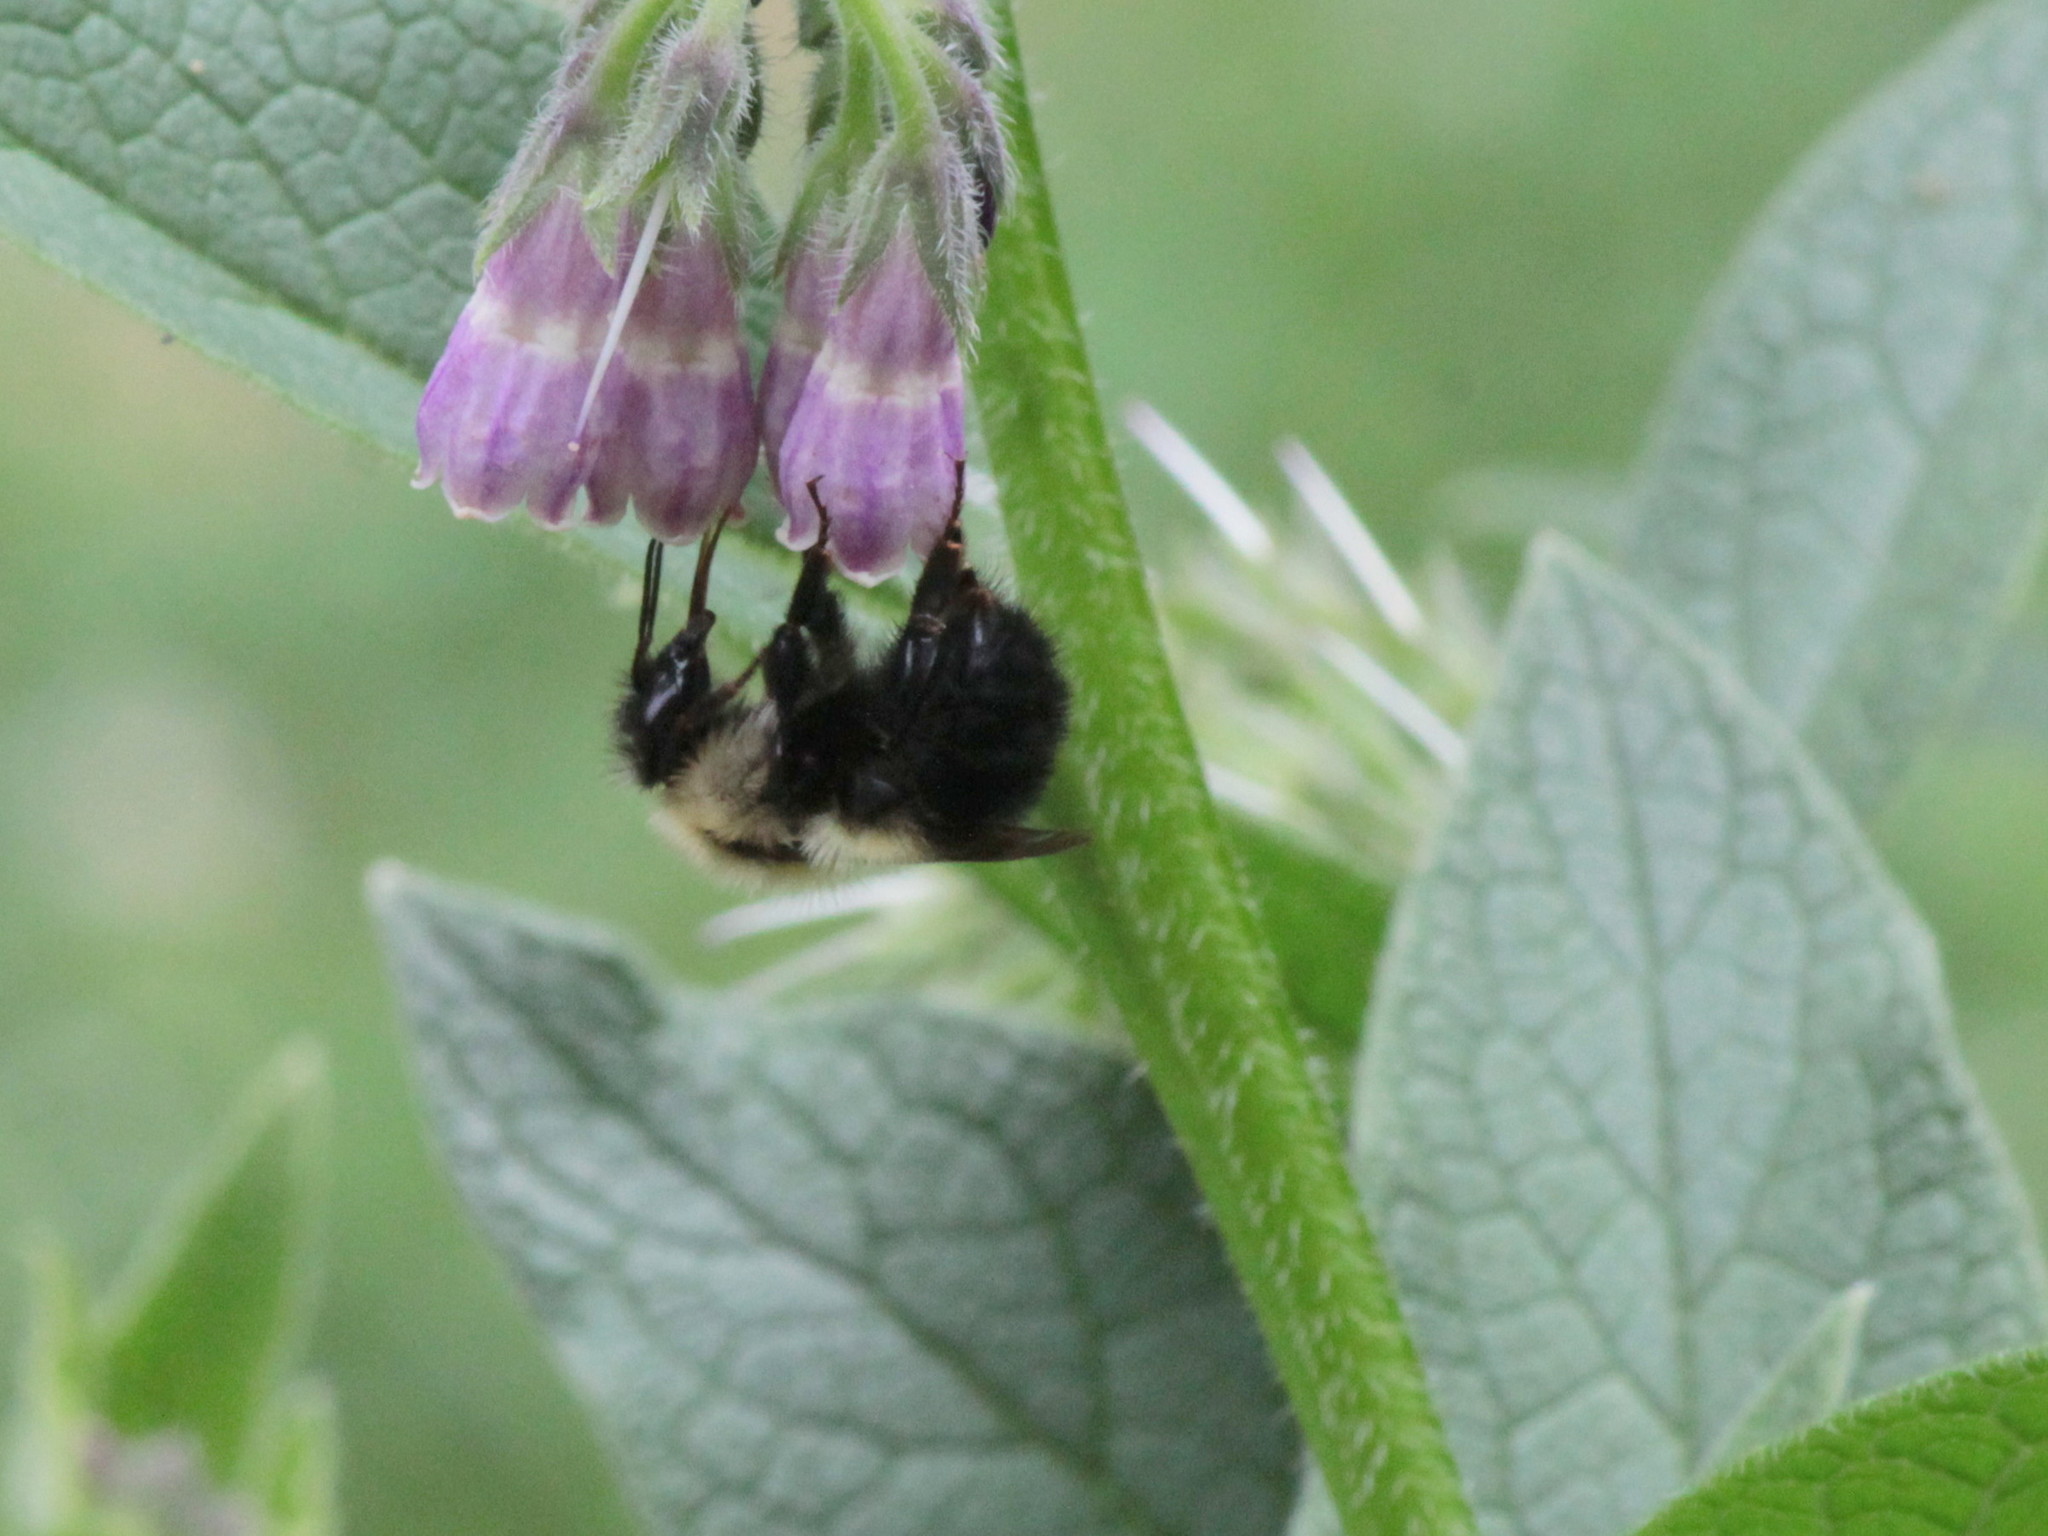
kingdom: Animalia
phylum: Arthropoda
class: Insecta
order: Hymenoptera
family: Apidae
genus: Pyrobombus
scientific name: Pyrobombus
